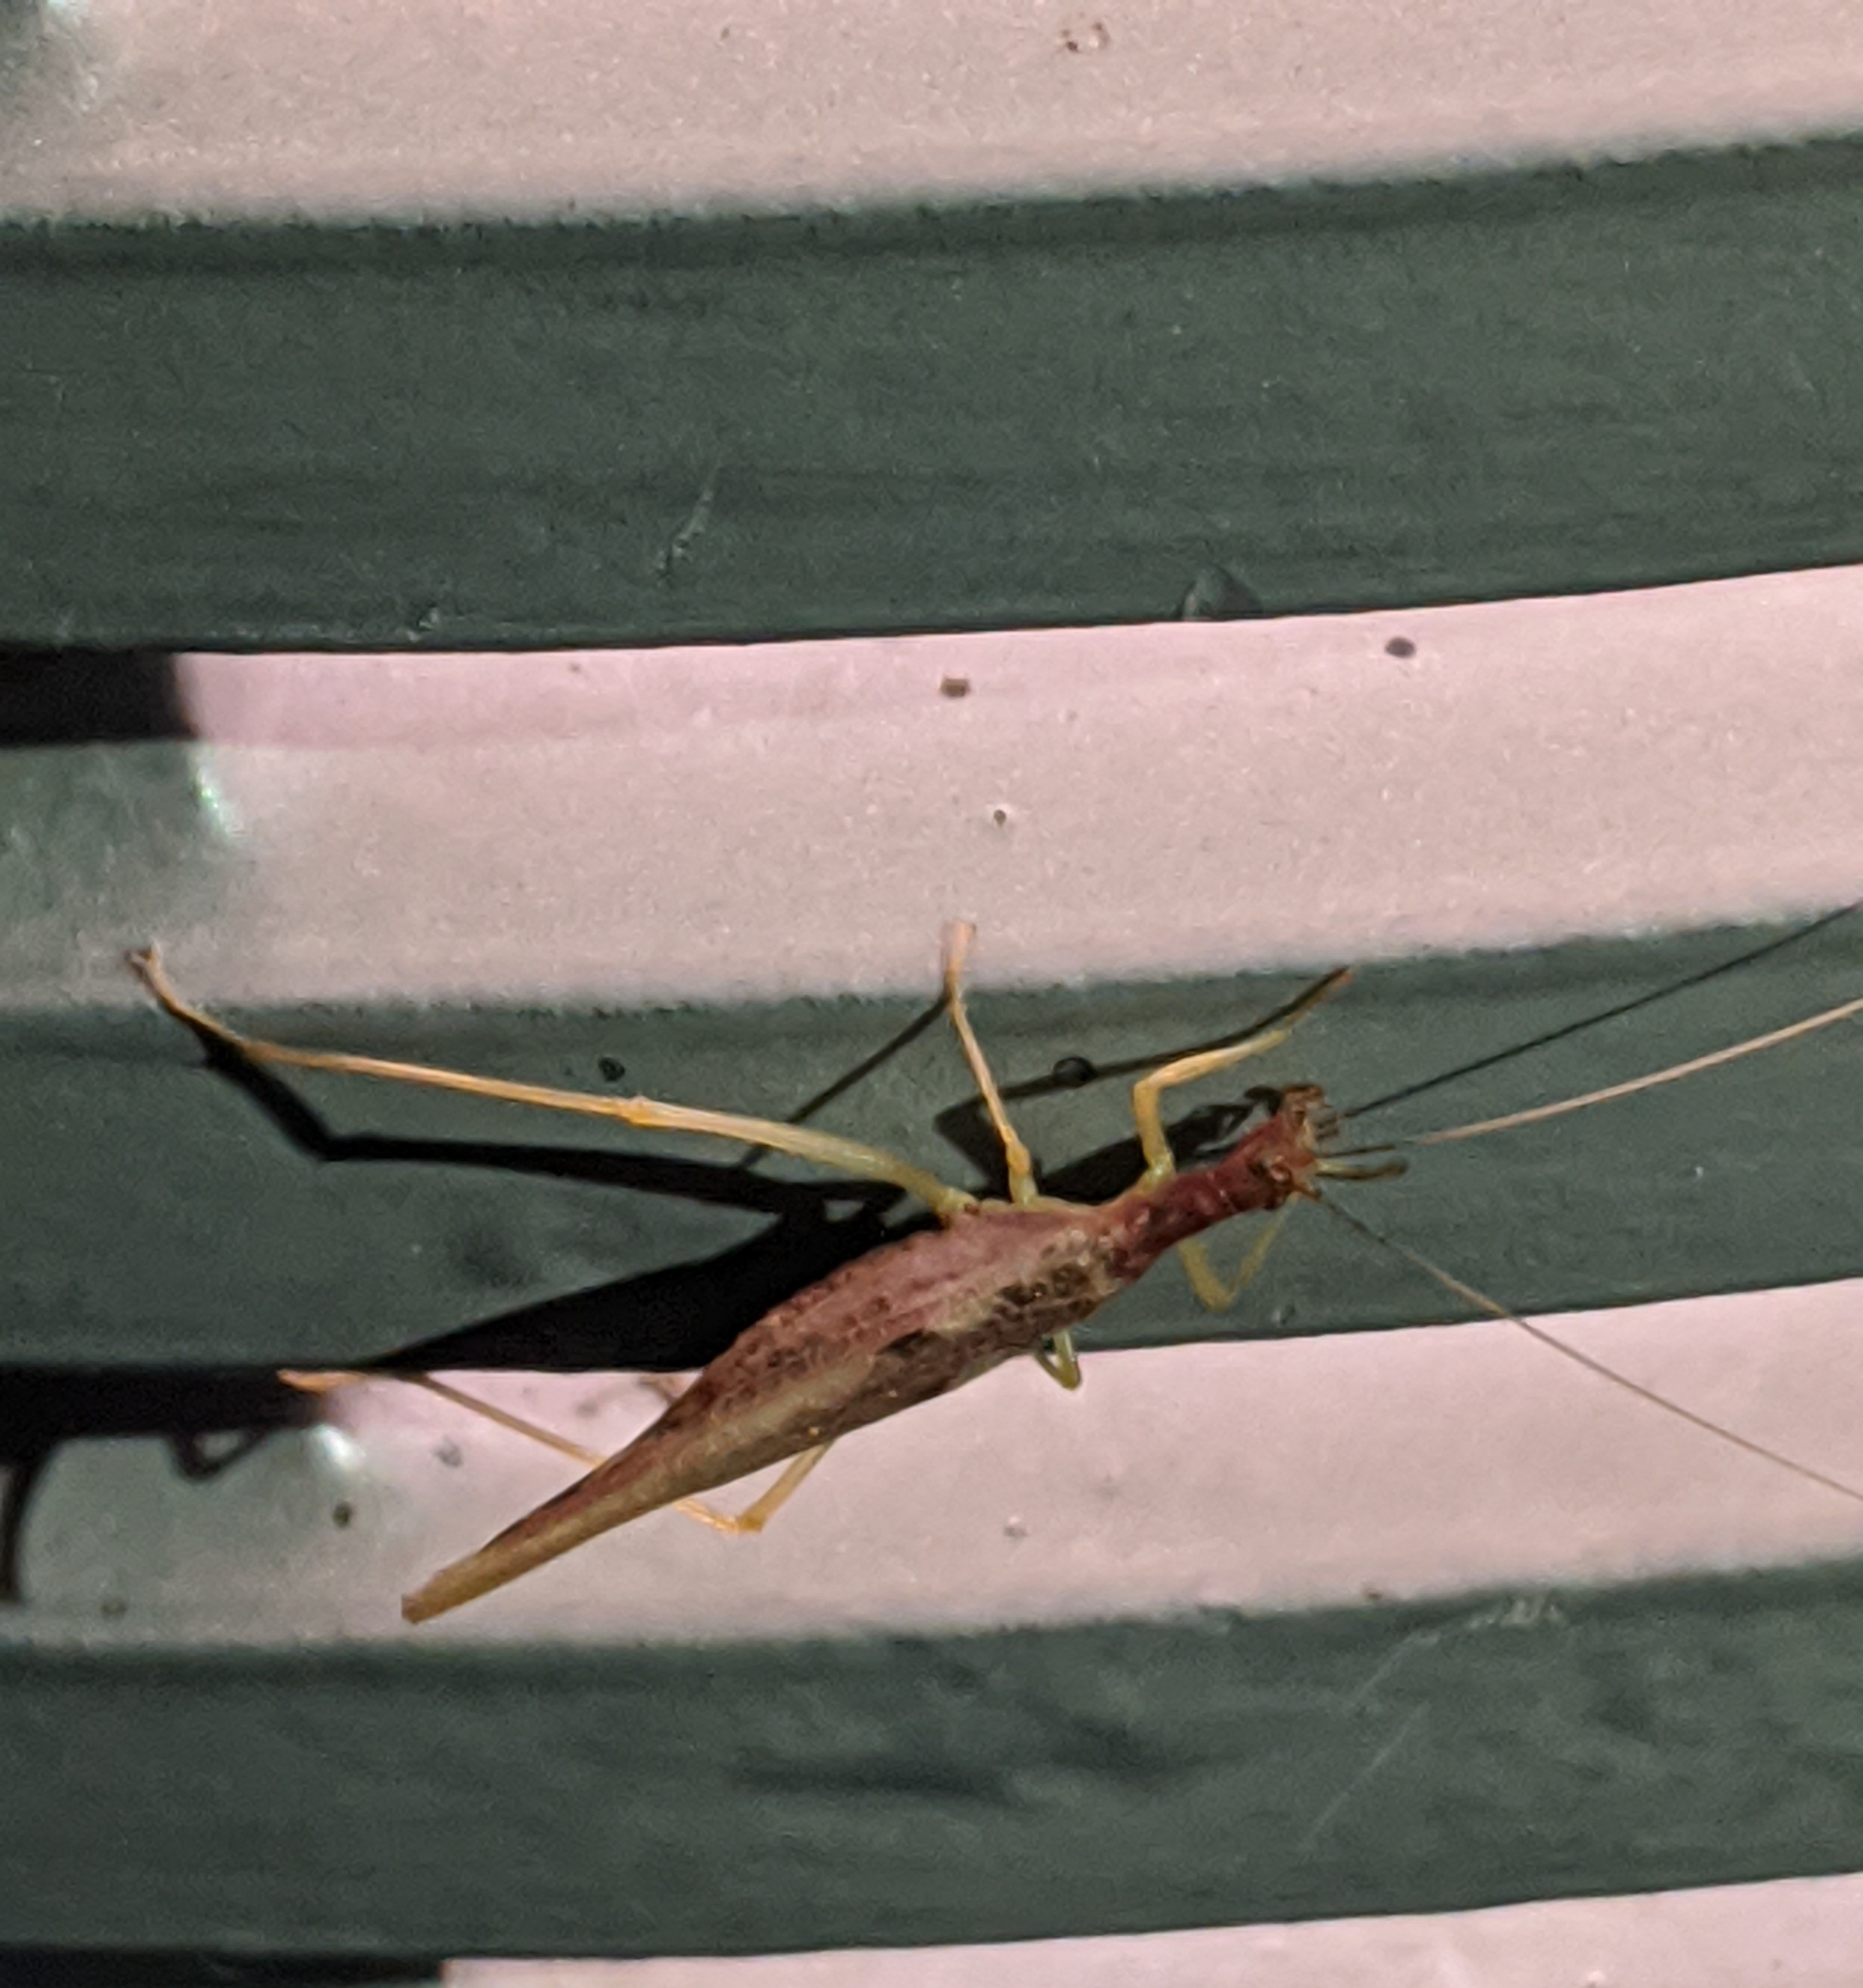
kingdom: Animalia
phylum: Arthropoda
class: Insecta
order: Orthoptera
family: Gryllidae
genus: Neoxabea
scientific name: Neoxabea bipunctata
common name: Two-spotted tree cricket
